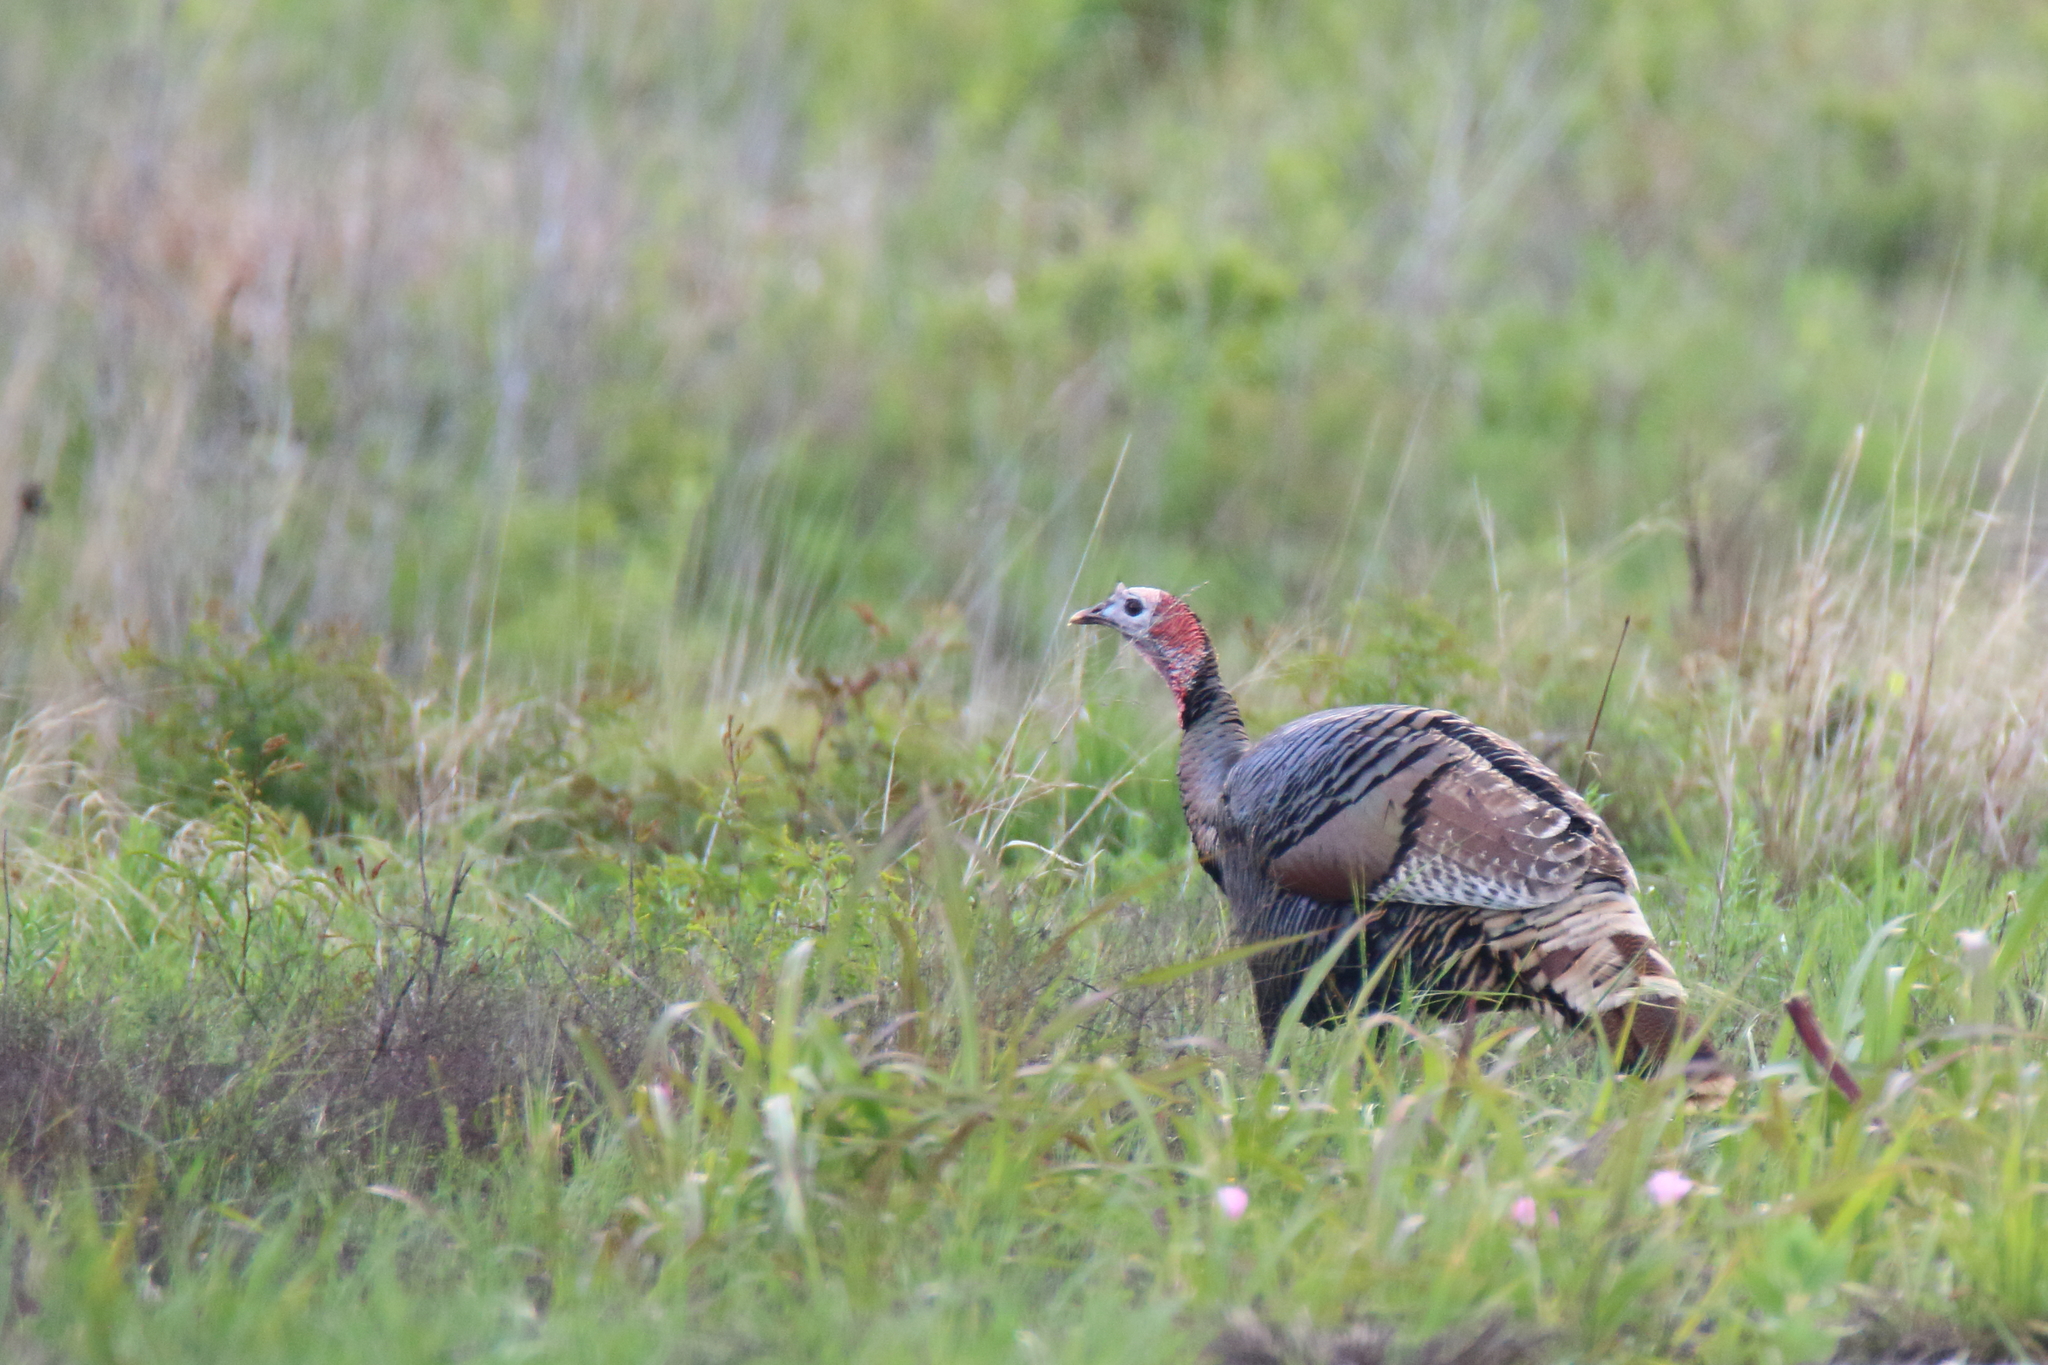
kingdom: Animalia
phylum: Chordata
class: Aves
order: Galliformes
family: Phasianidae
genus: Meleagris
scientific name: Meleagris gallopavo
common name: Wild turkey
